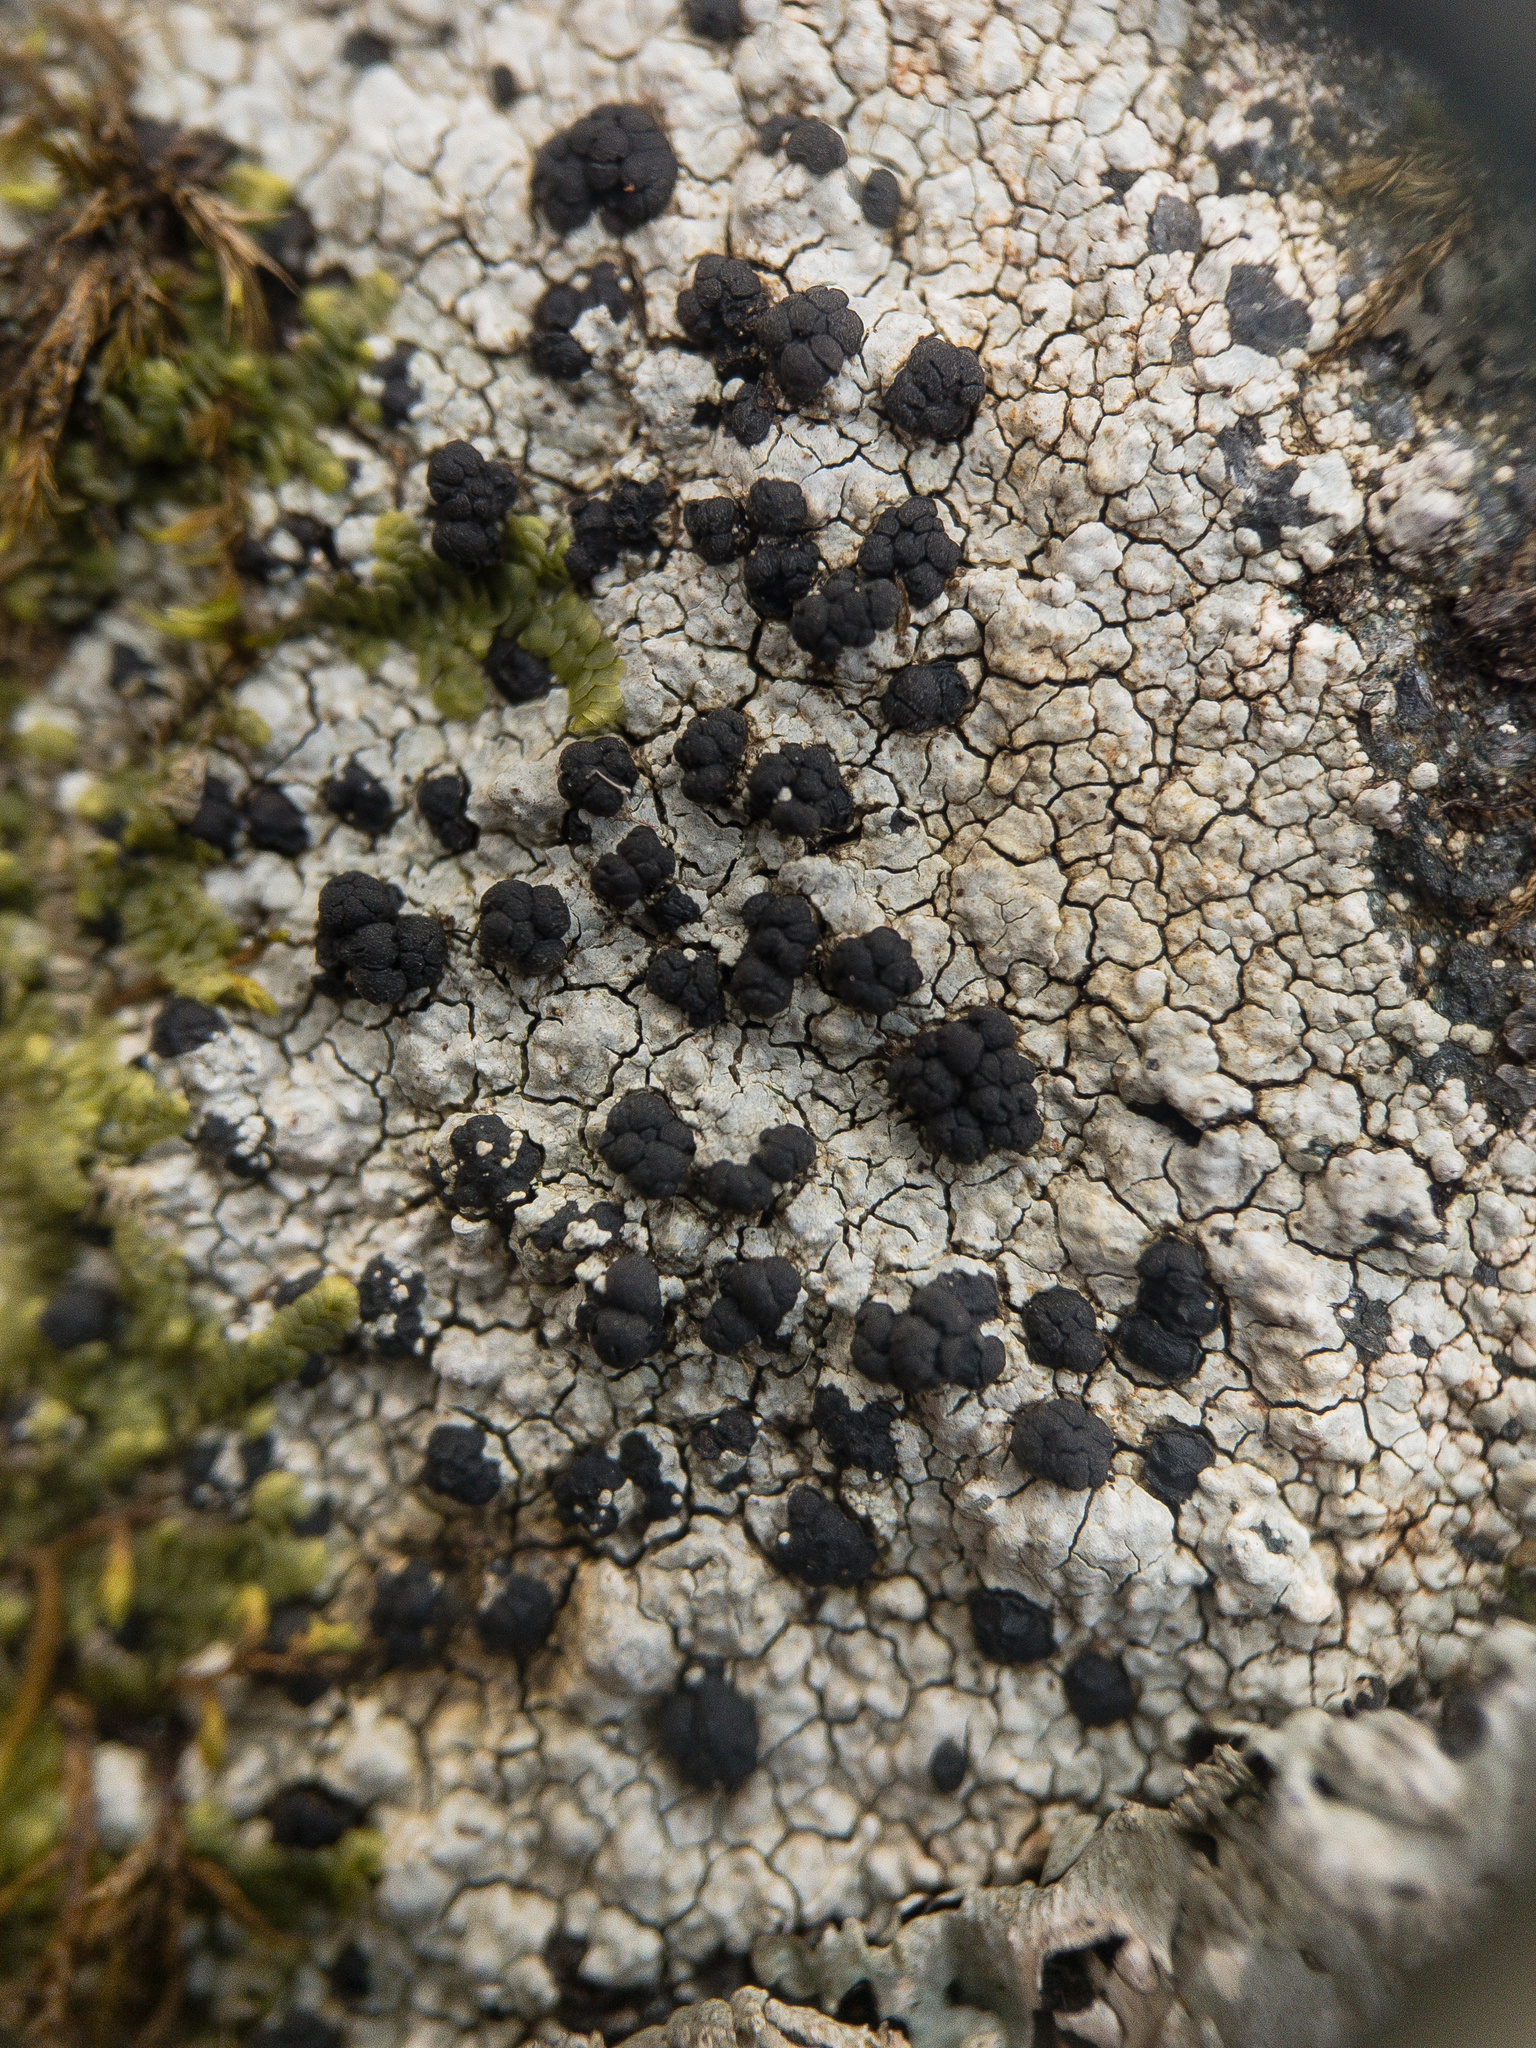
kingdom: Fungi
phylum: Ascomycota
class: Lecanoromycetes
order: Lecideales
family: Lecideaceae
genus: Porpidia
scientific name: Porpidia macrocarpa
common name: Common boulder lichen
